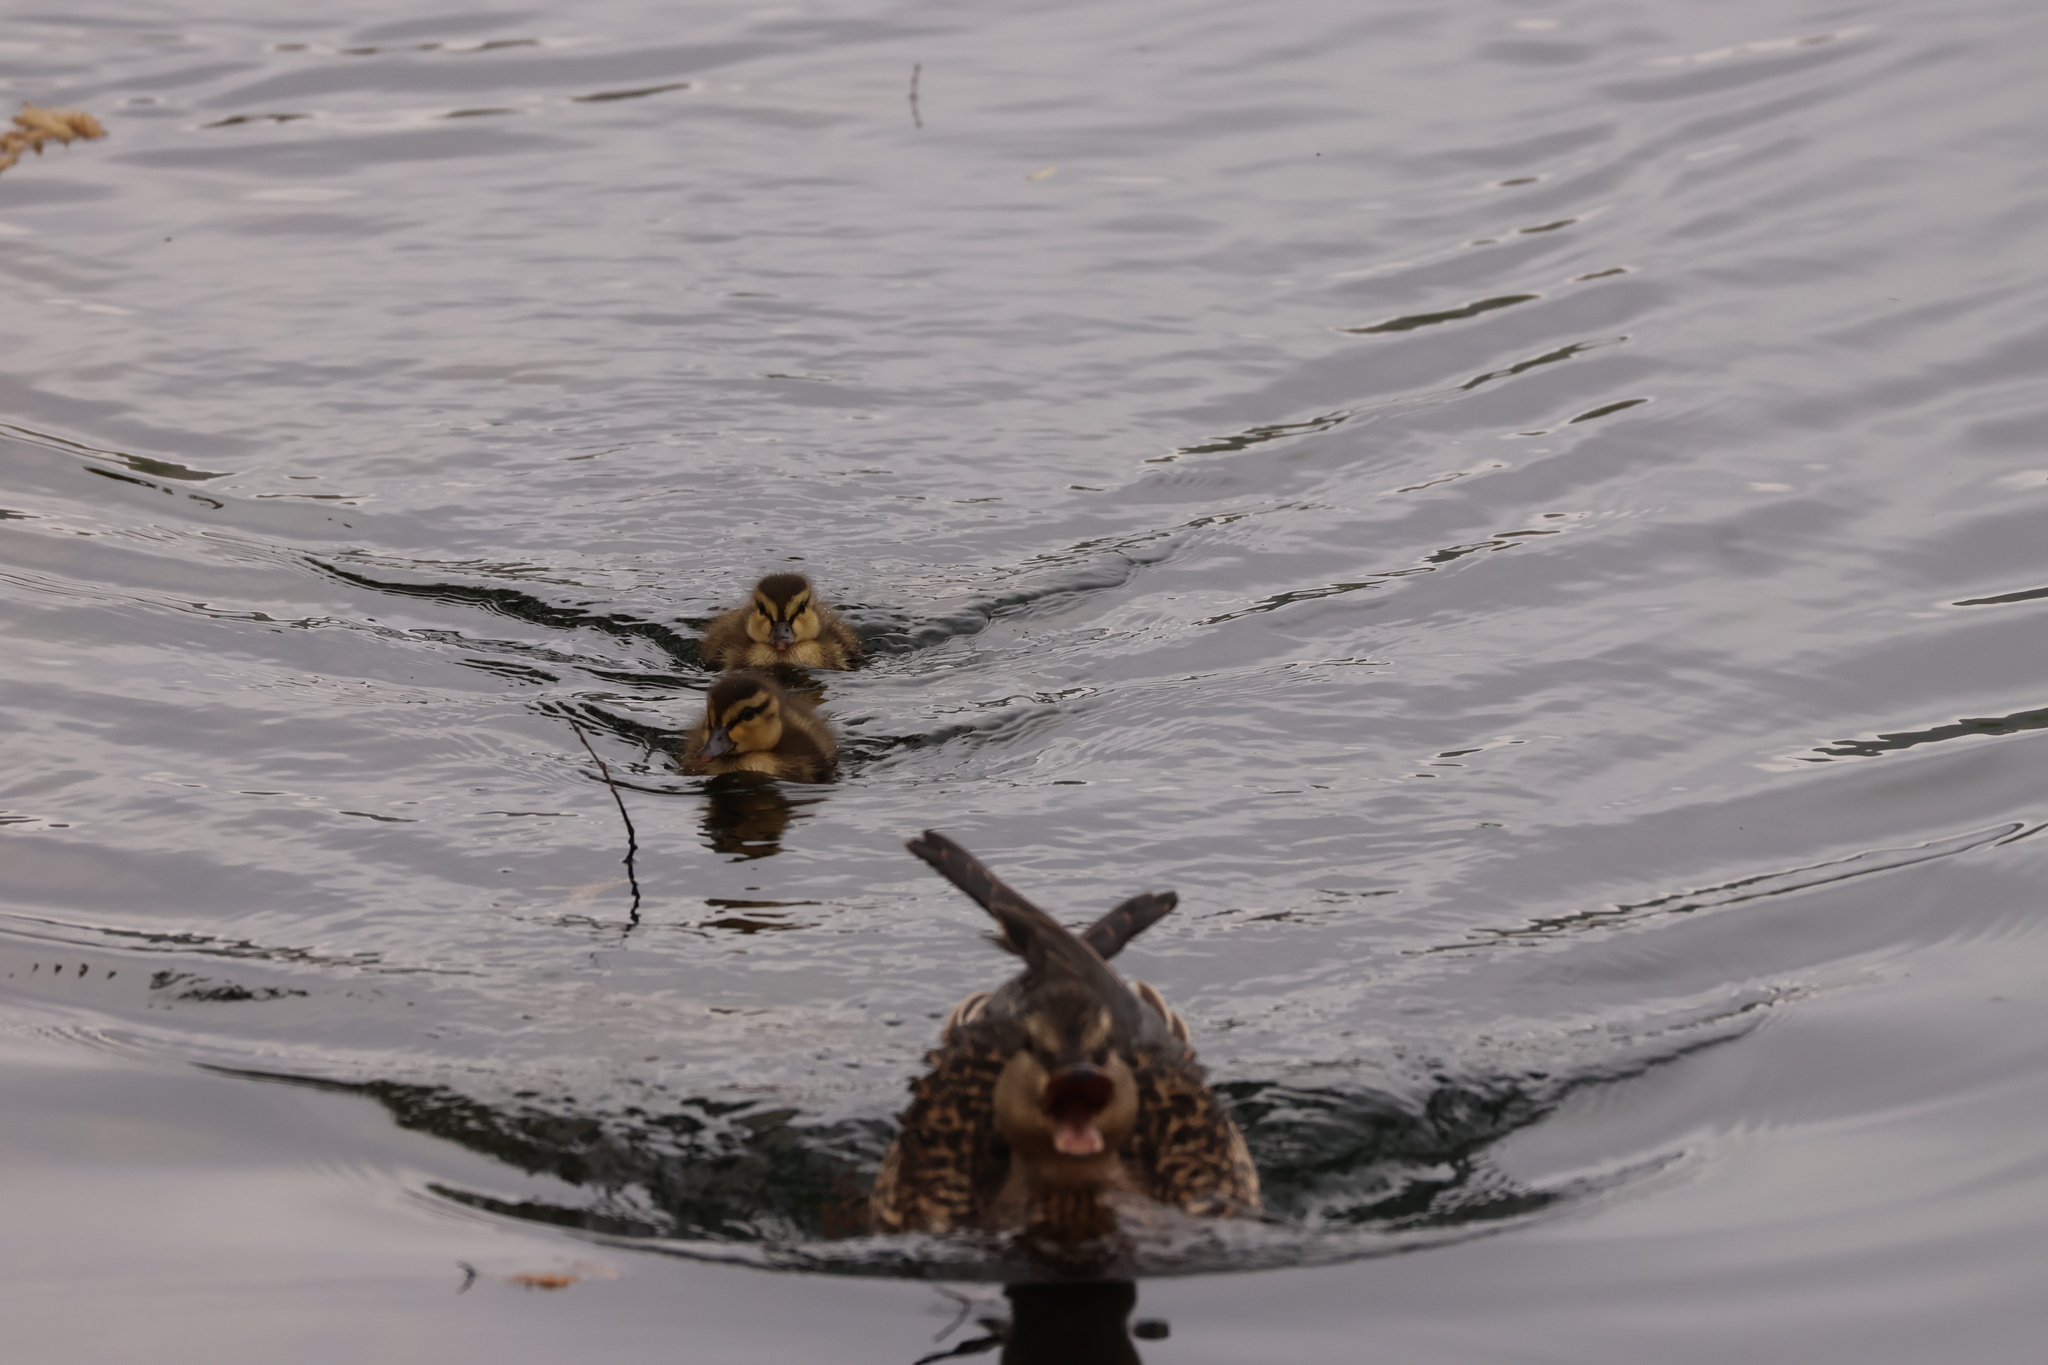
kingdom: Animalia
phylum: Chordata
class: Aves
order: Anseriformes
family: Anatidae
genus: Anas
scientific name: Anas platyrhynchos
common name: Mallard
